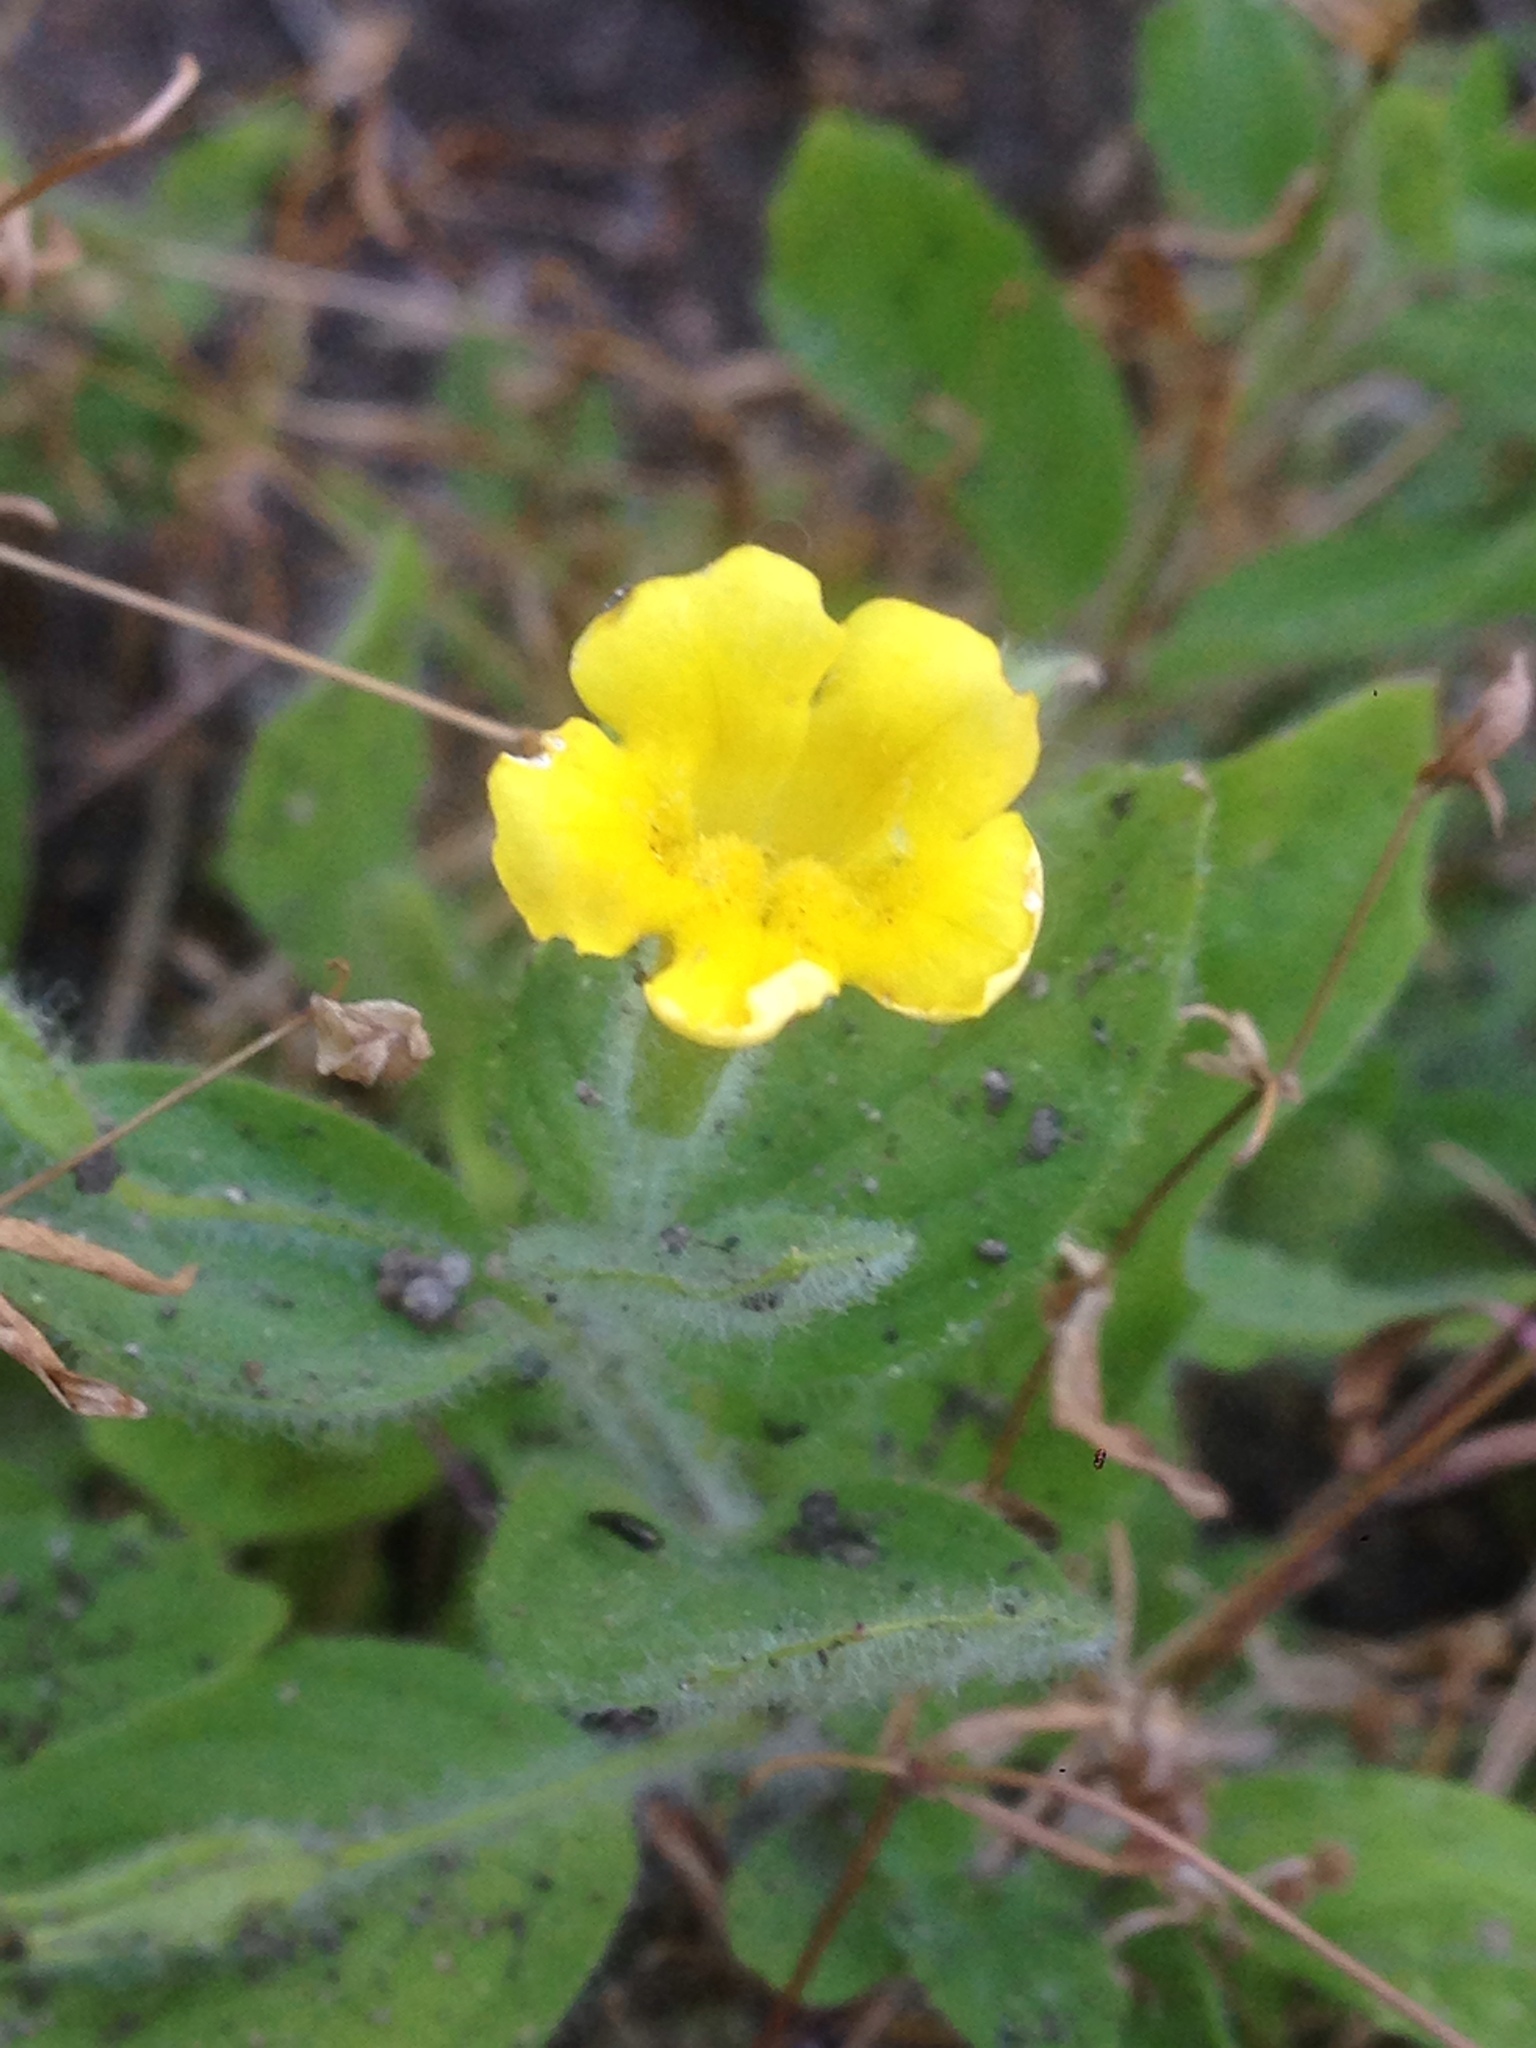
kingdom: Plantae
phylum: Tracheophyta
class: Magnoliopsida
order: Lamiales
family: Phrymaceae
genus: Erythranthe
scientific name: Erythranthe moschata
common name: Muskflower
